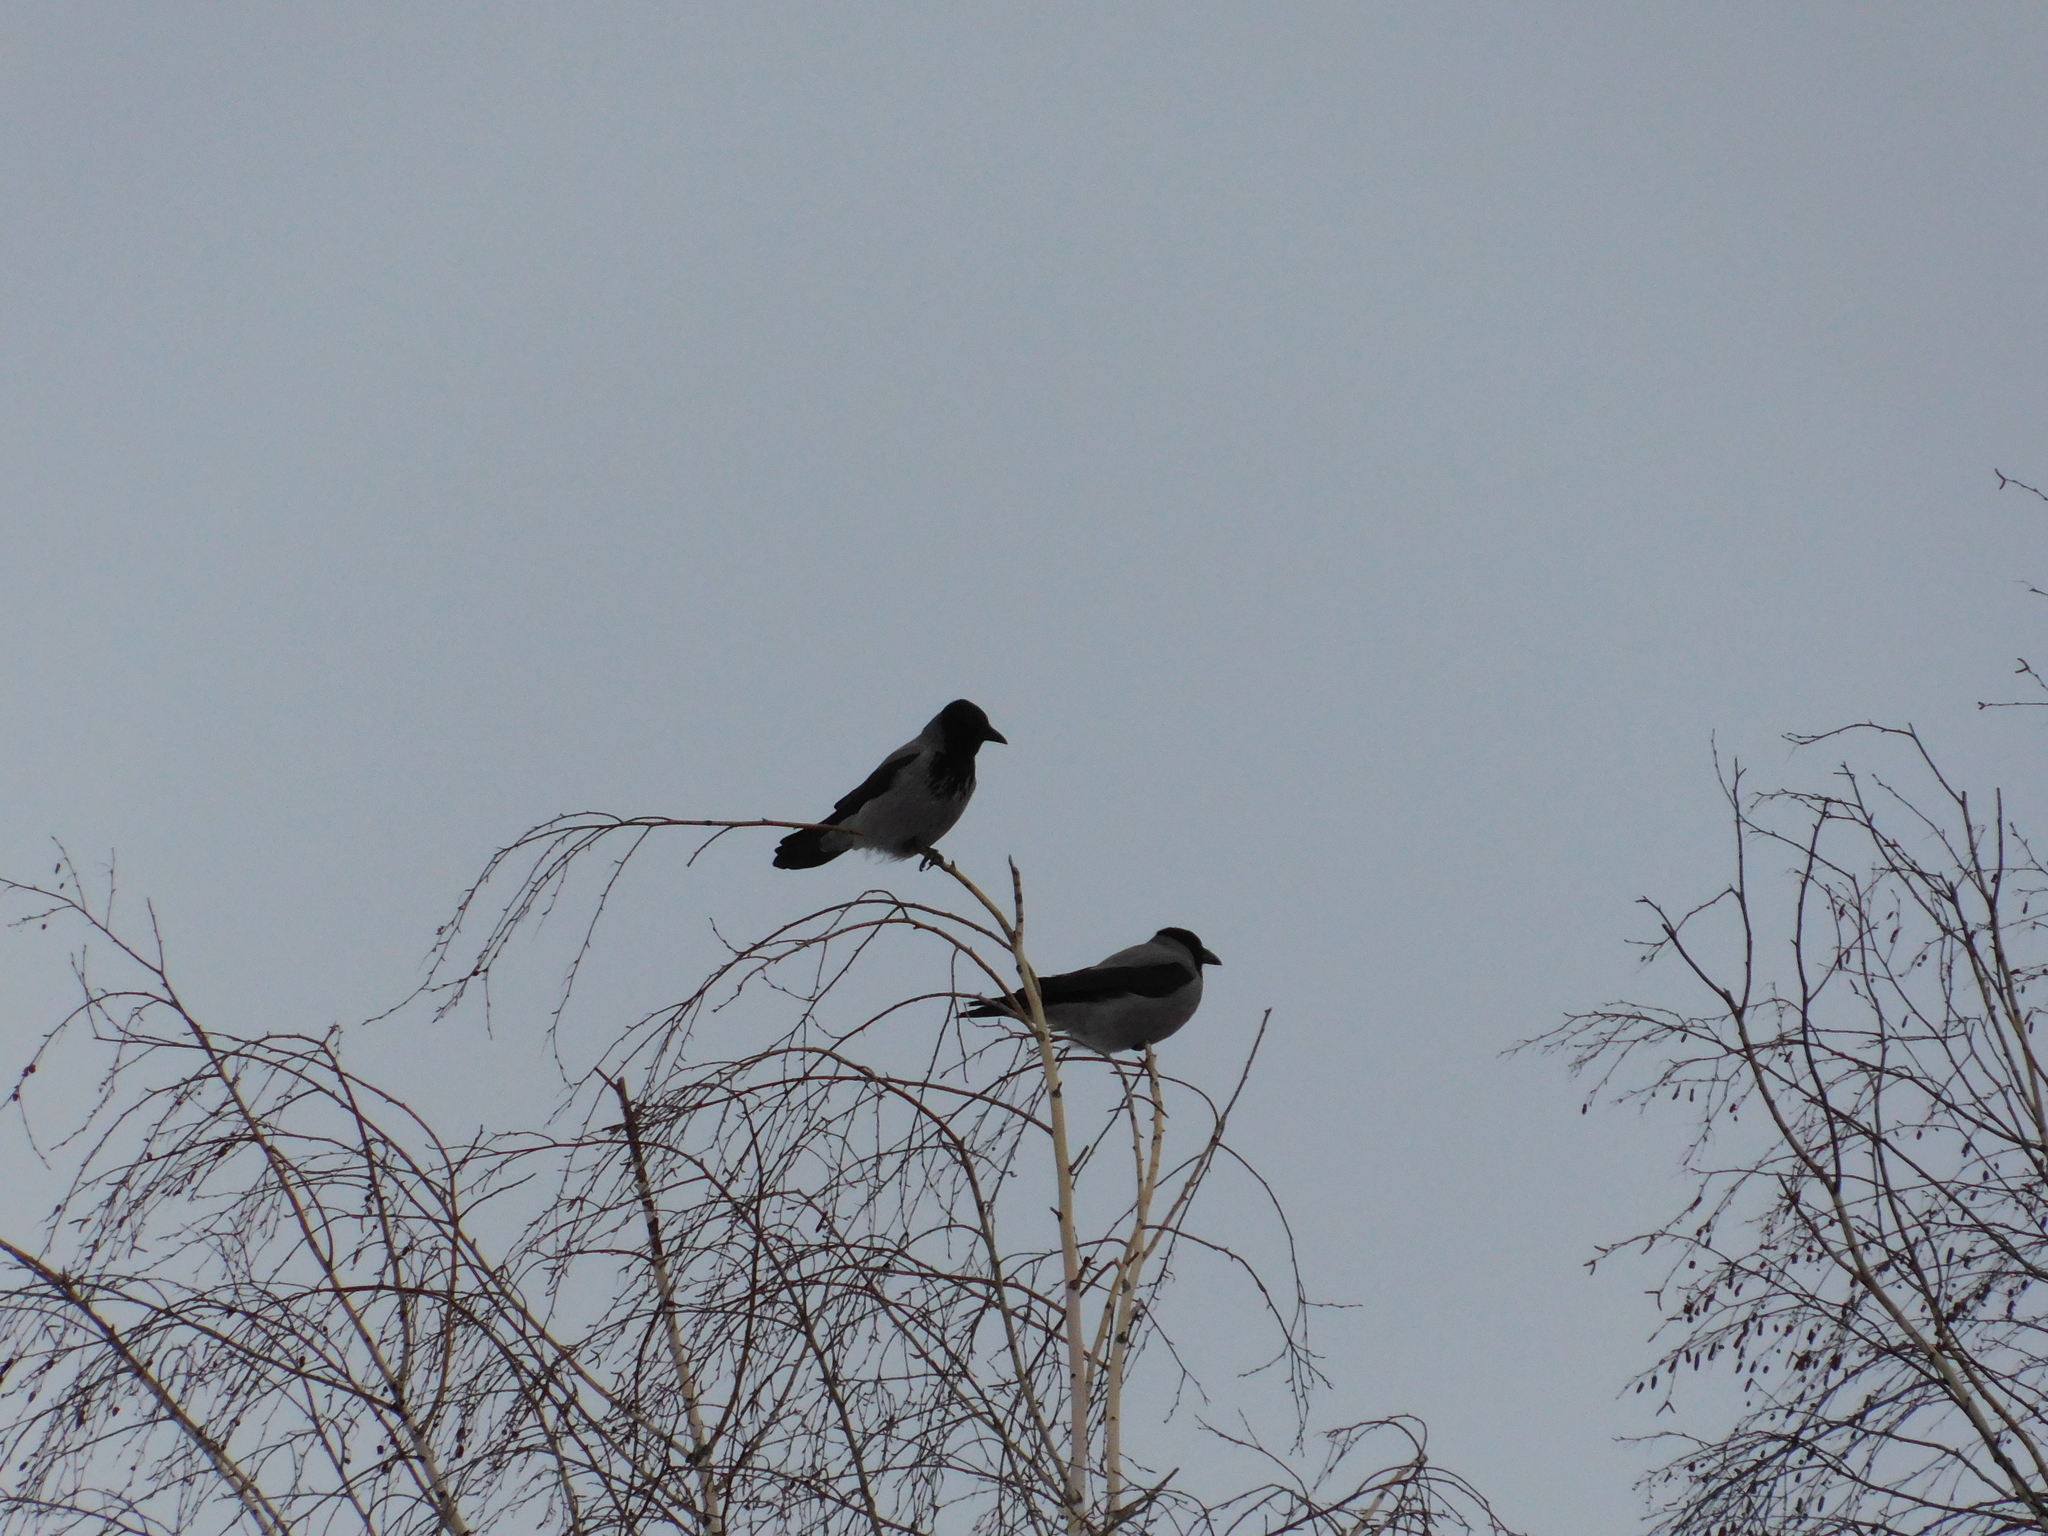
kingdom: Animalia
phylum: Chordata
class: Aves
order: Passeriformes
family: Corvidae
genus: Corvus
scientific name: Corvus cornix
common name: Hooded crow
